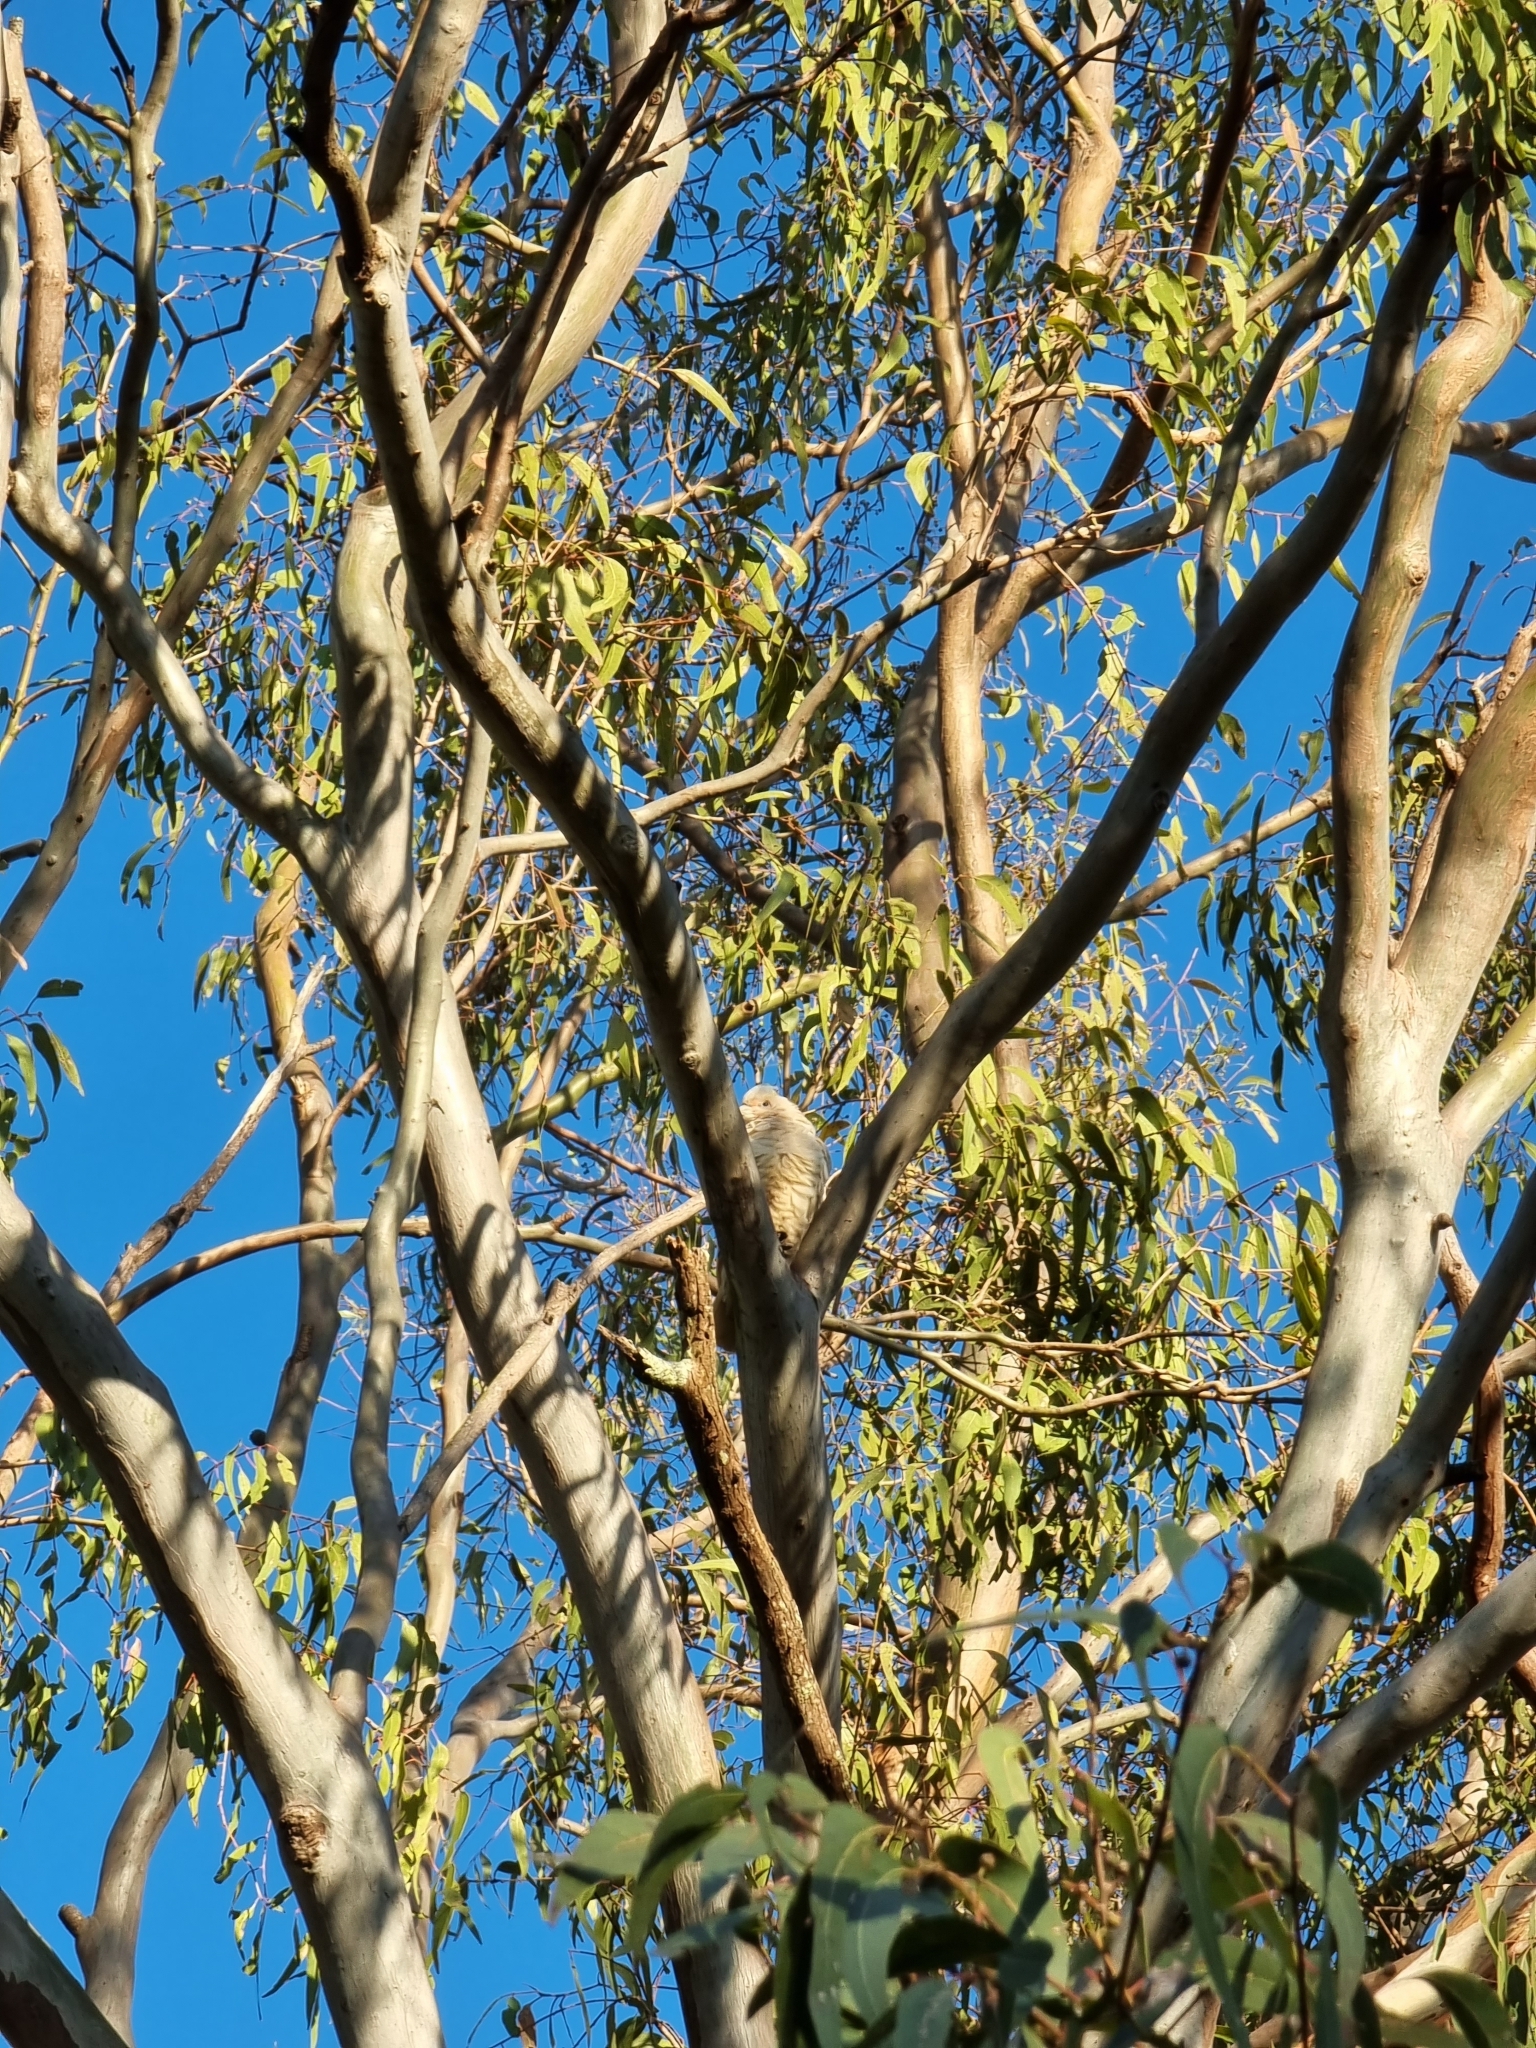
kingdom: Animalia
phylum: Chordata
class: Aves
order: Psittaciformes
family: Psittacidae
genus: Cacatua
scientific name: Cacatua sanguinea
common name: Little corella
